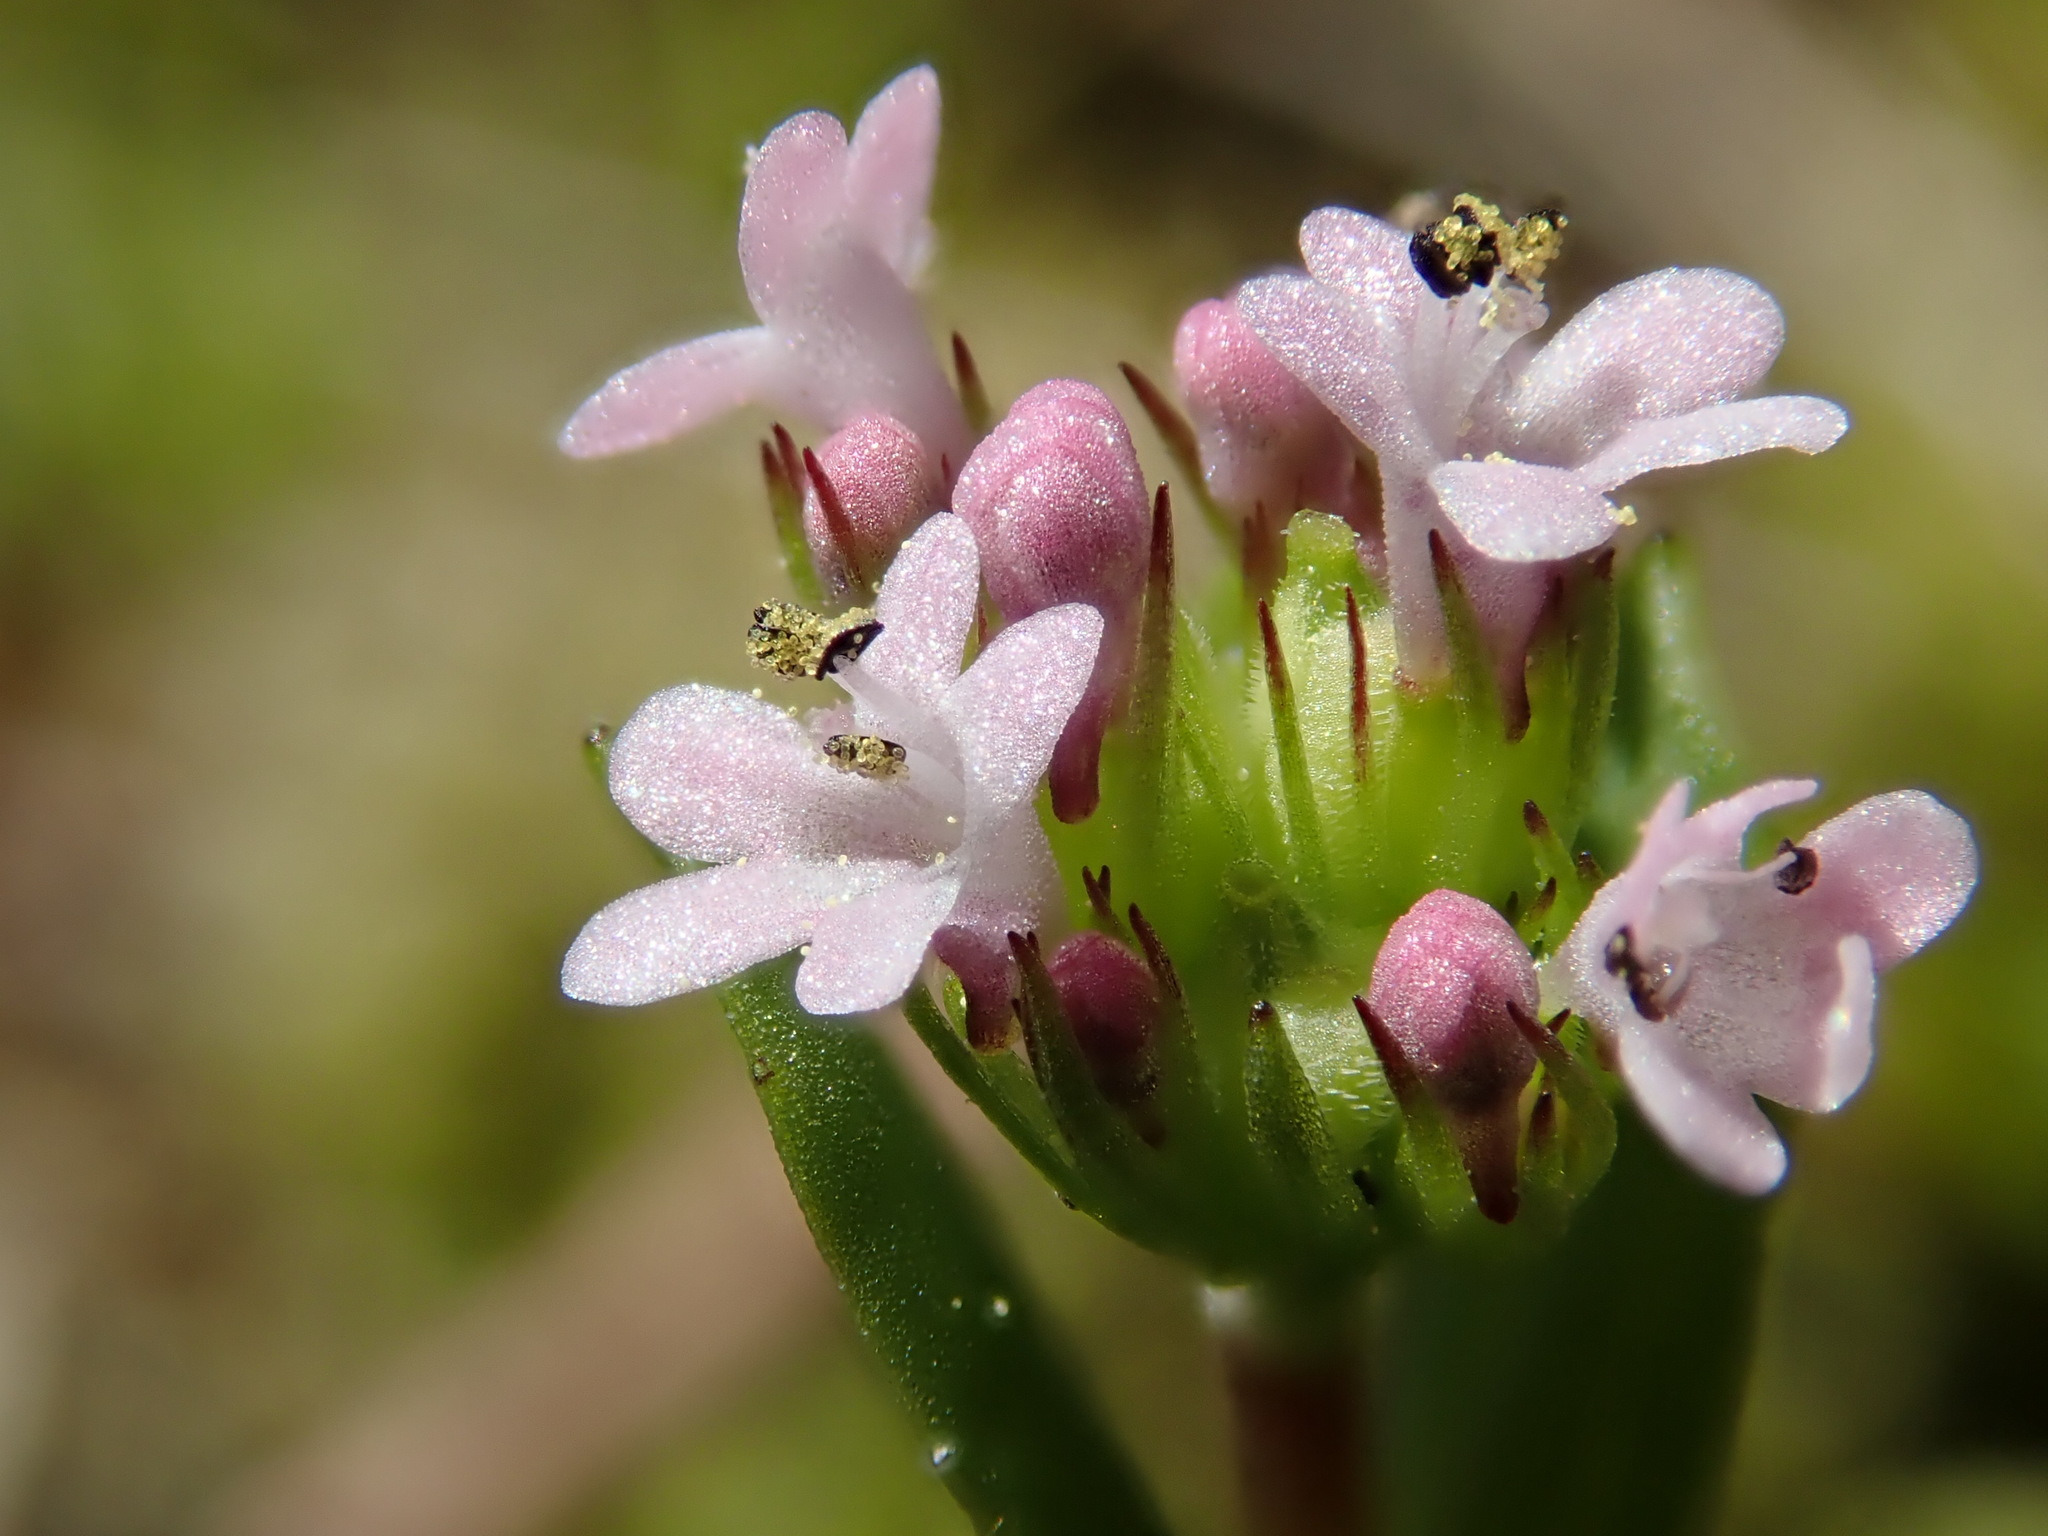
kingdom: Plantae
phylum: Tracheophyta
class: Magnoliopsida
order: Dipsacales
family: Caprifoliaceae
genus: Plectritis
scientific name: Plectritis congesta
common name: Pink plectritis
